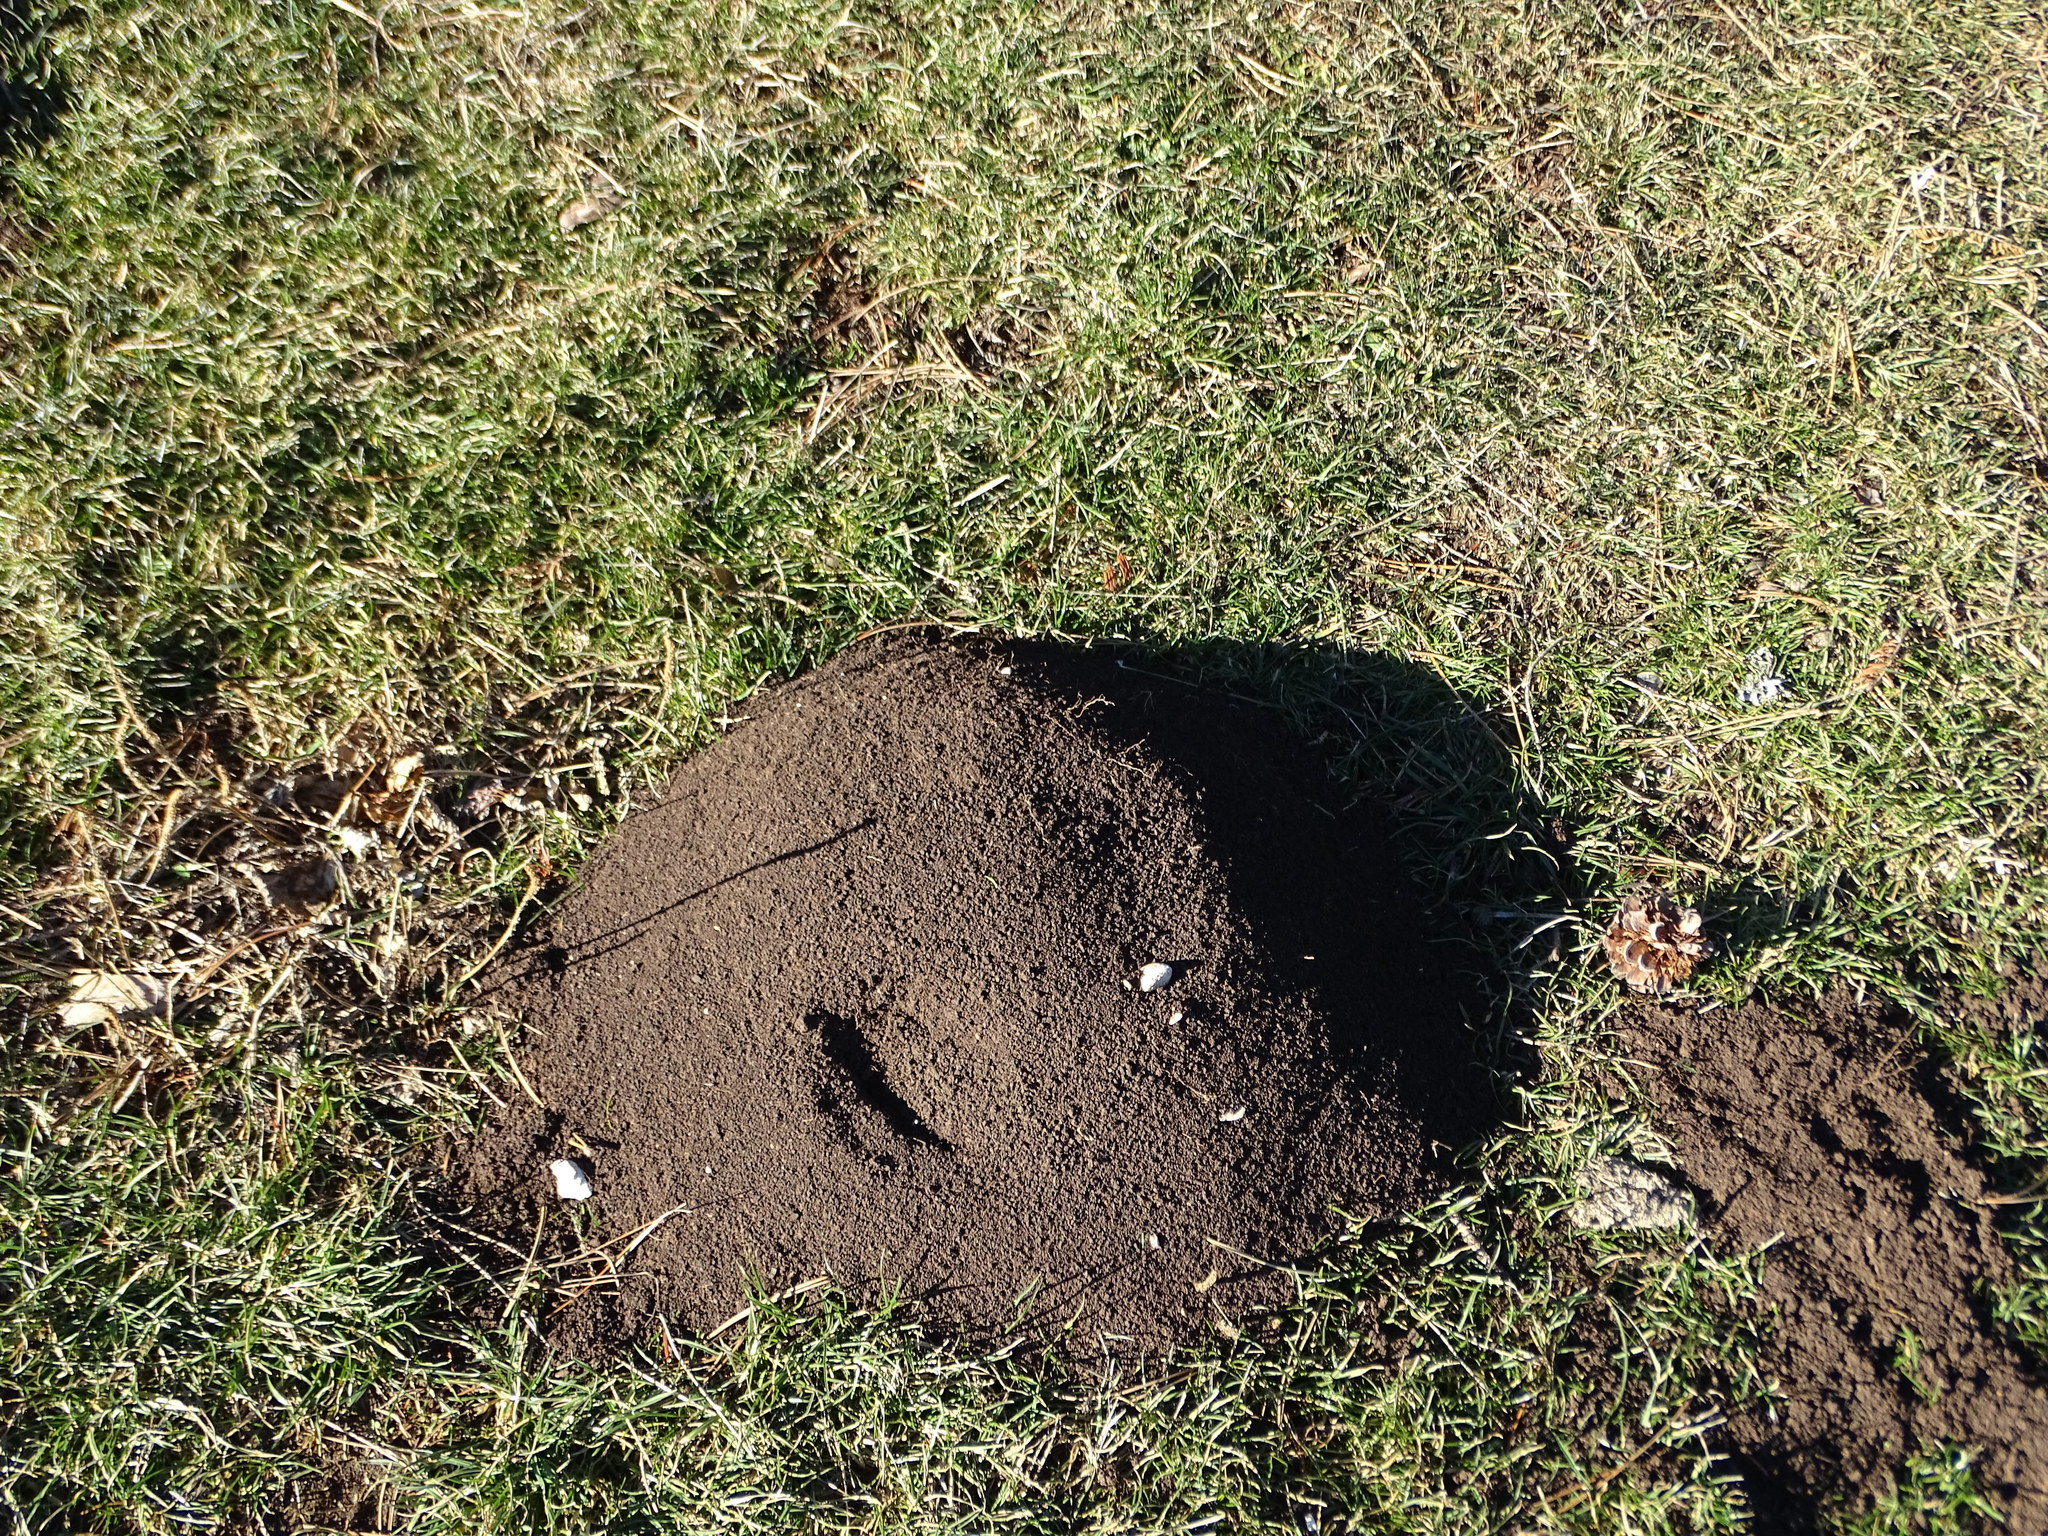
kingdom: Animalia
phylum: Chordata
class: Mammalia
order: Soricomorpha
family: Talpidae
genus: Talpa
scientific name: Talpa europaea
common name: European mole
